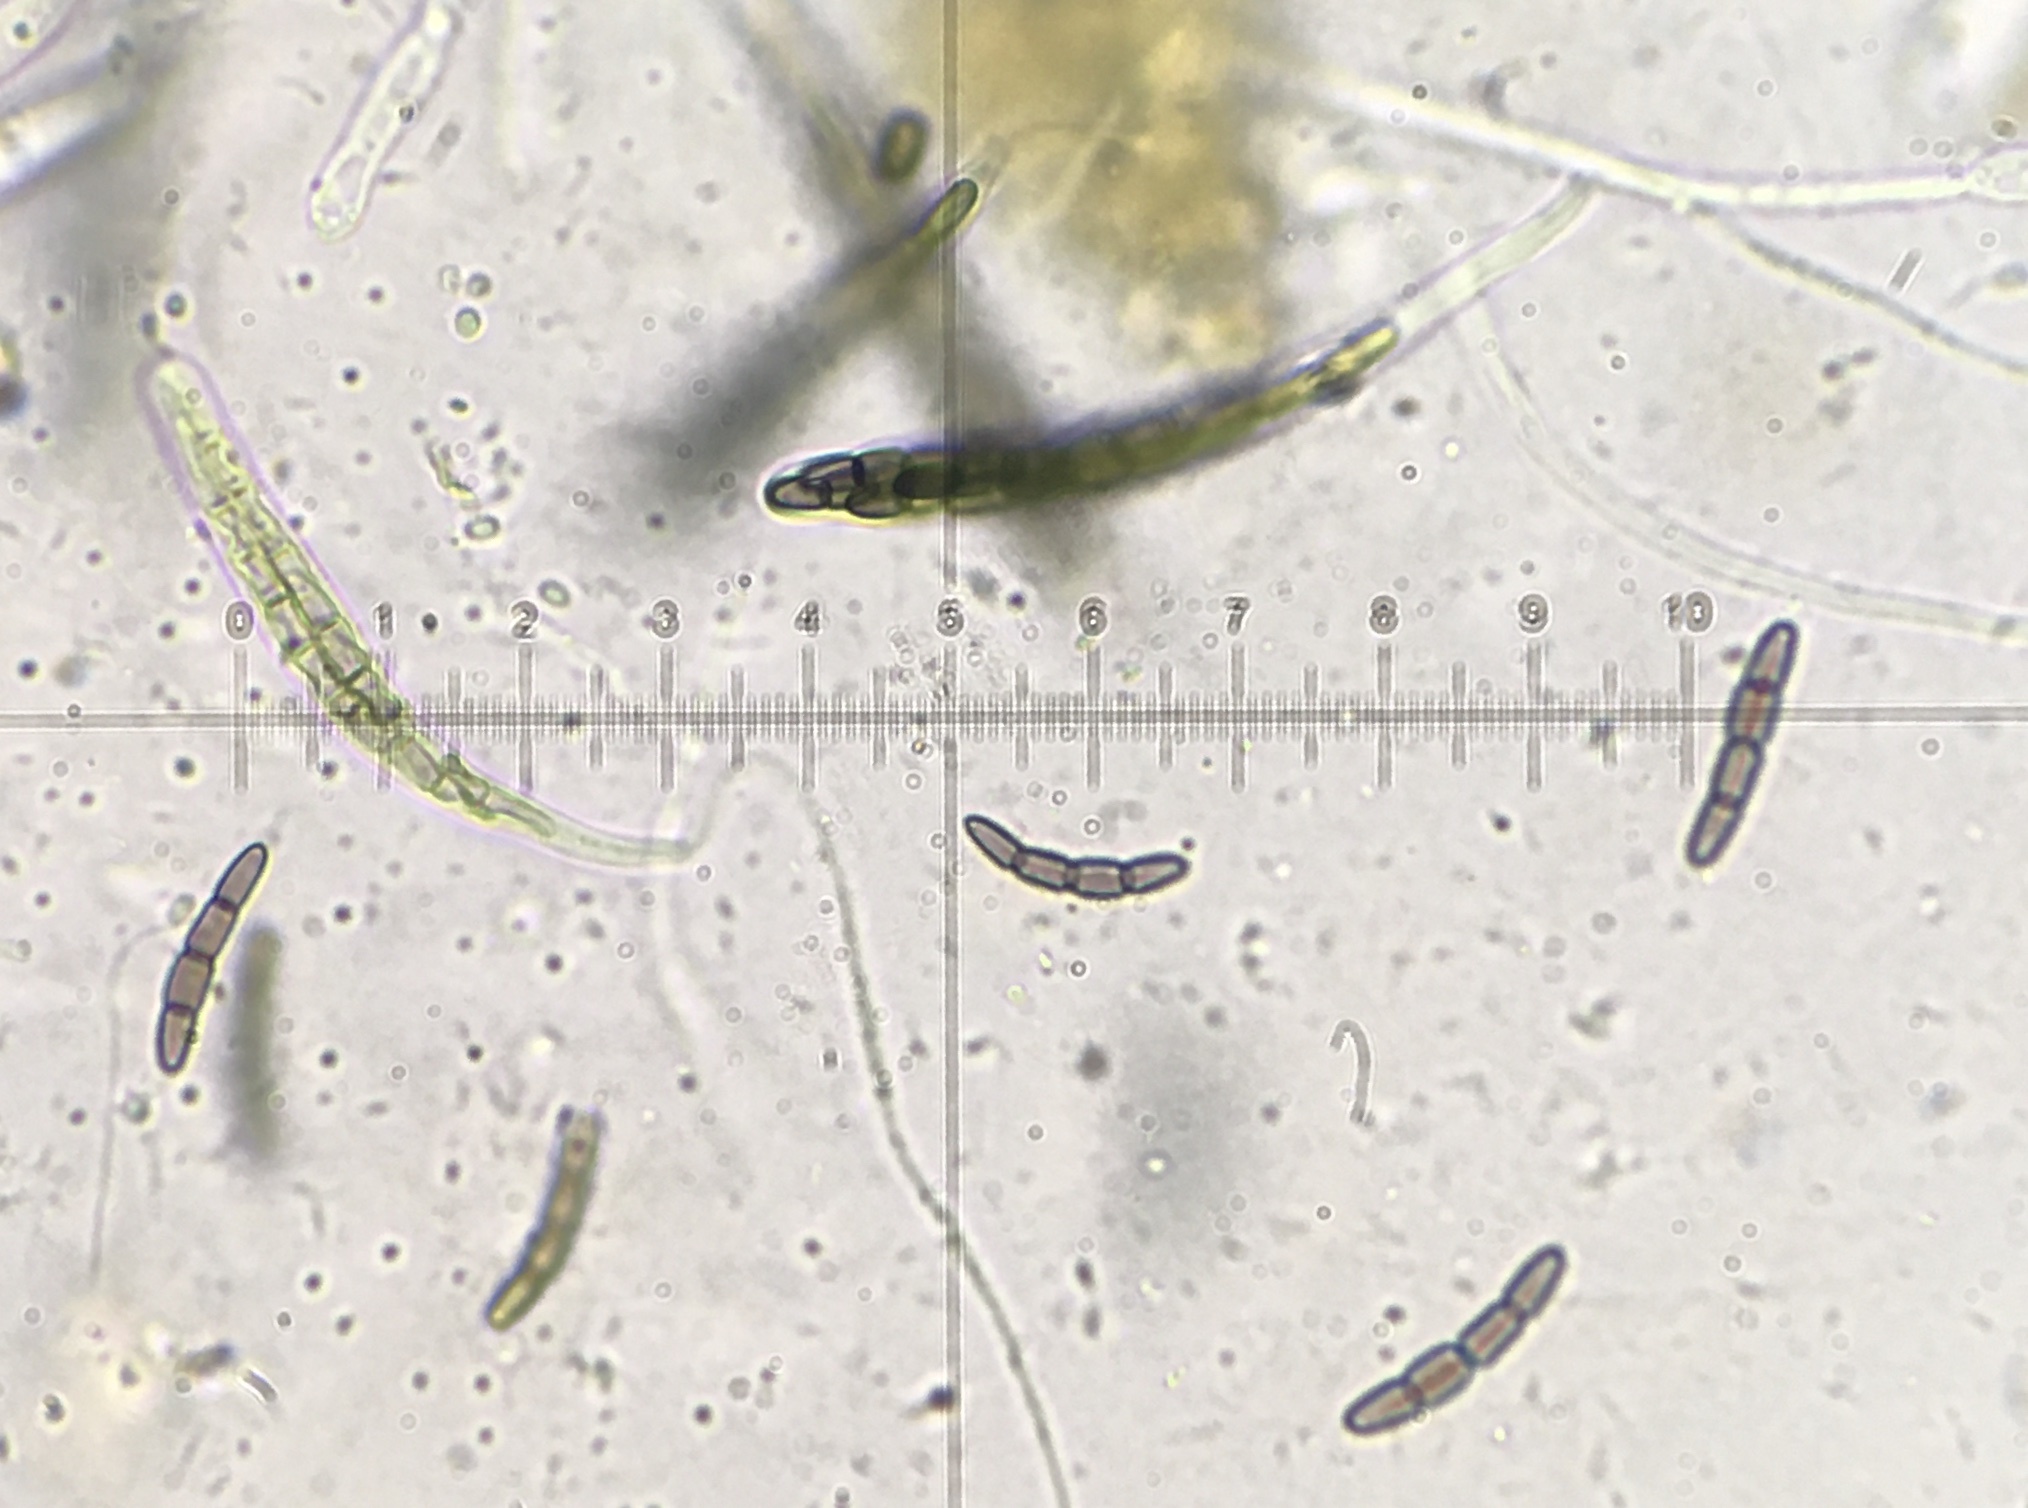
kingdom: Fungi
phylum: Ascomycota
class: Dothideomycetes
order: Pleosporales
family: Sporormiaceae
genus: Sporormiella
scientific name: Sporormiella minutisperma
